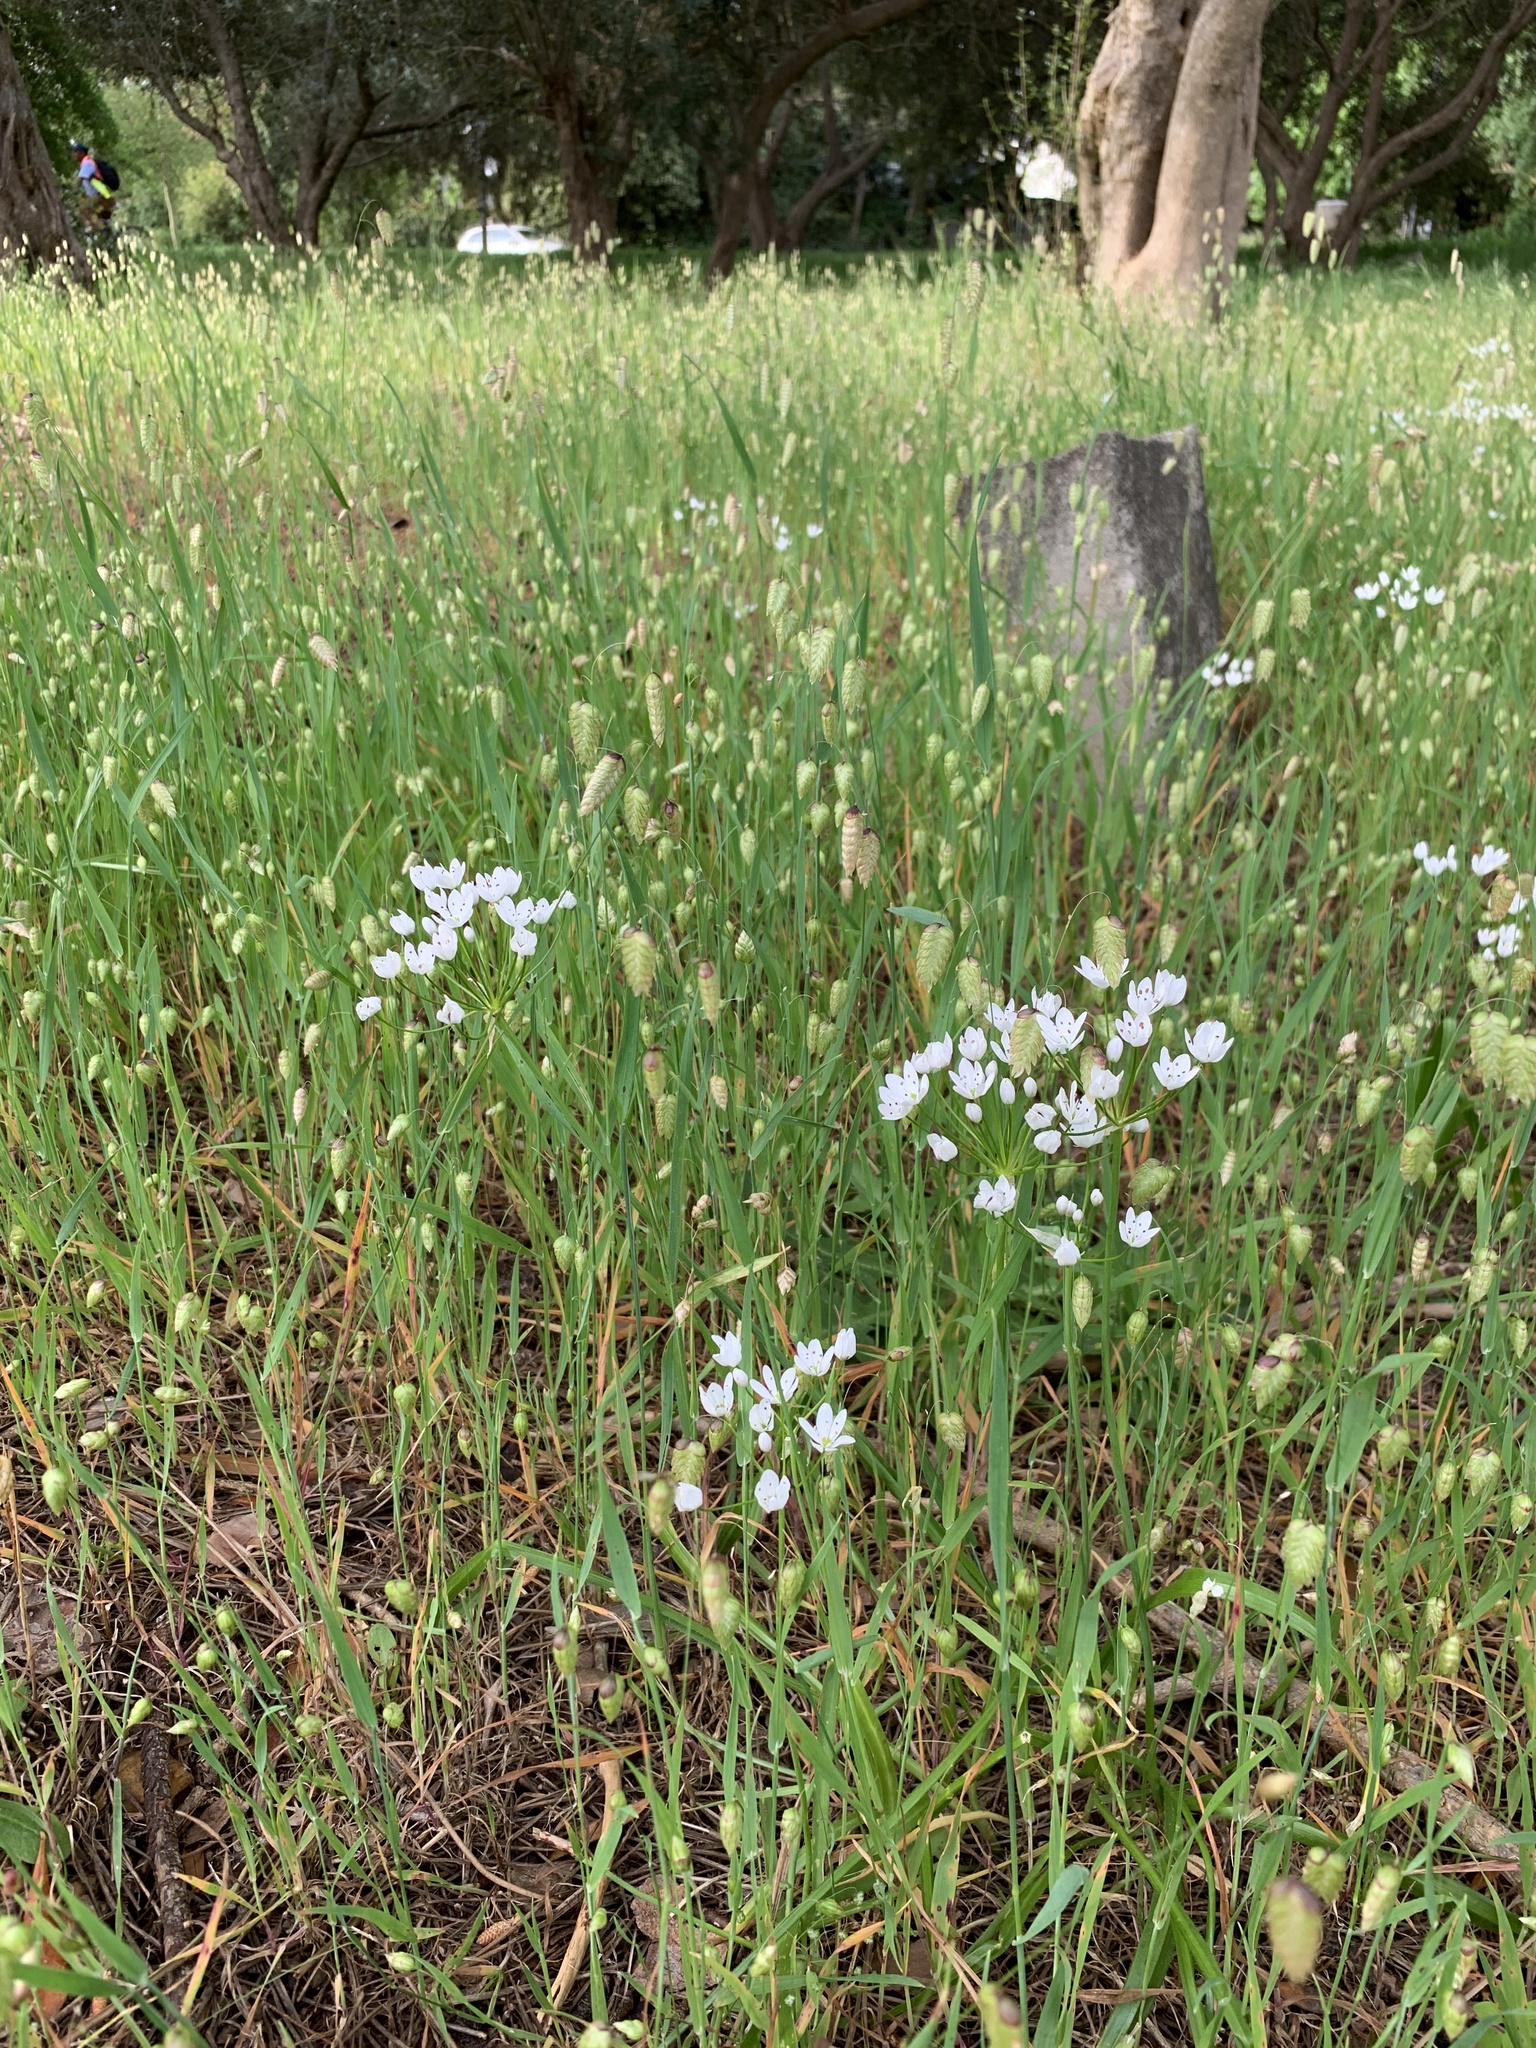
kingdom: Plantae
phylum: Tracheophyta
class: Liliopsida
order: Asparagales
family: Amaryllidaceae
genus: Allium
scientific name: Allium neapolitanum
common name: Neapolitan garlic
